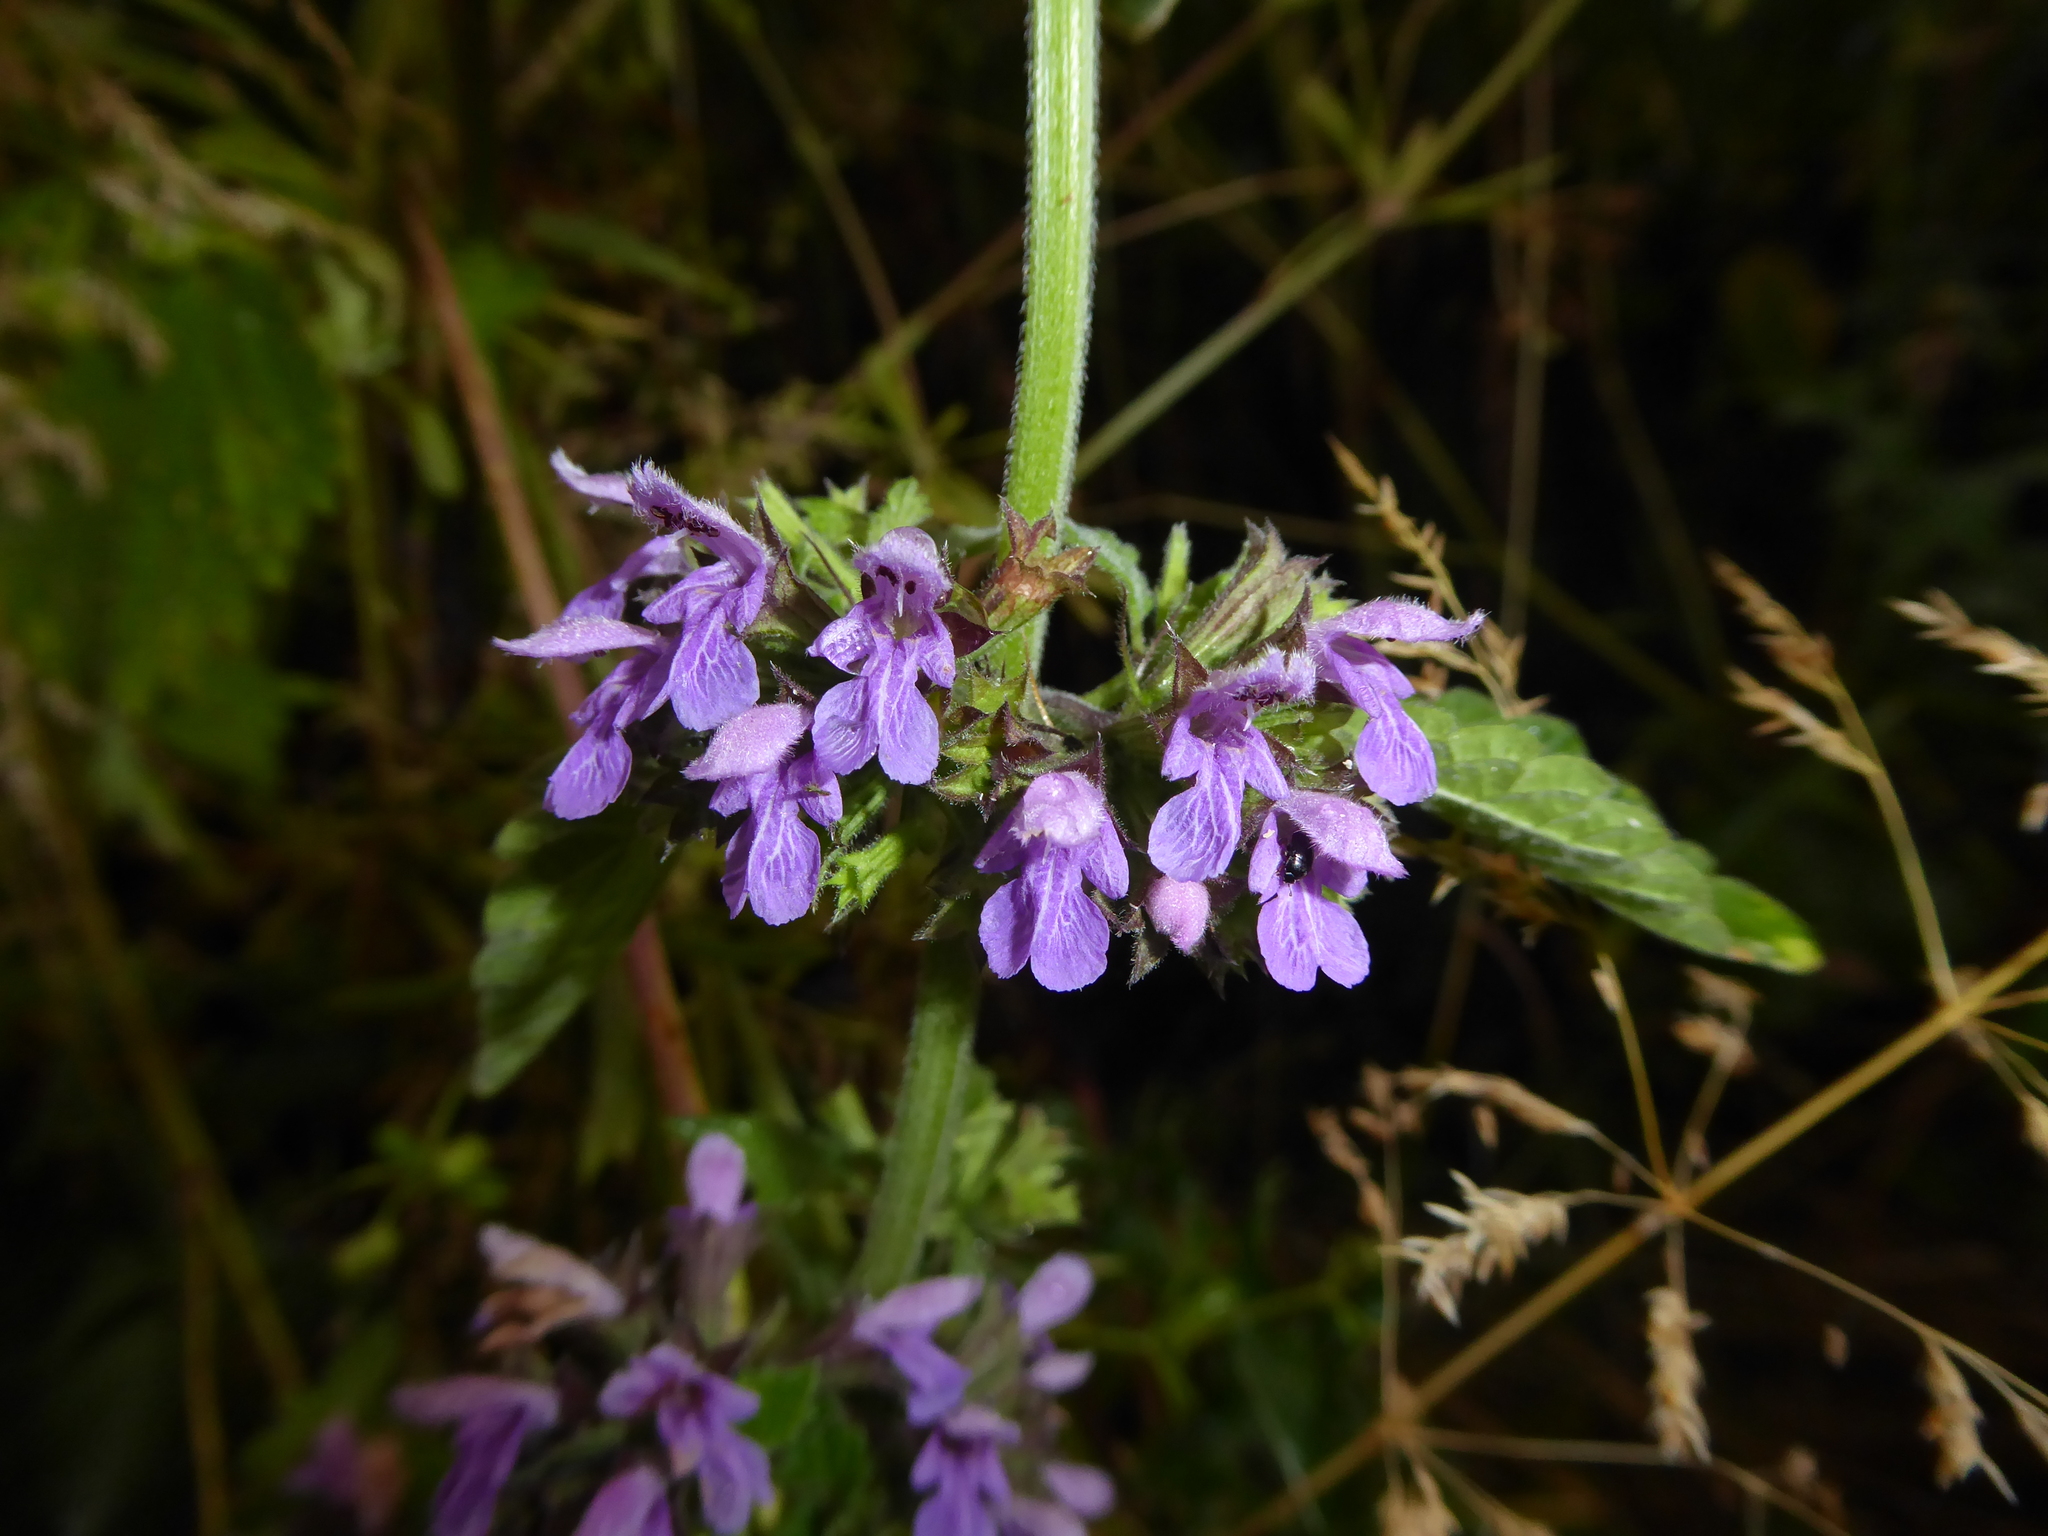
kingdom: Plantae
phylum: Tracheophyta
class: Magnoliopsida
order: Lamiales
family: Lamiaceae
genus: Ballota
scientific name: Ballota nigra
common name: Black horehound
